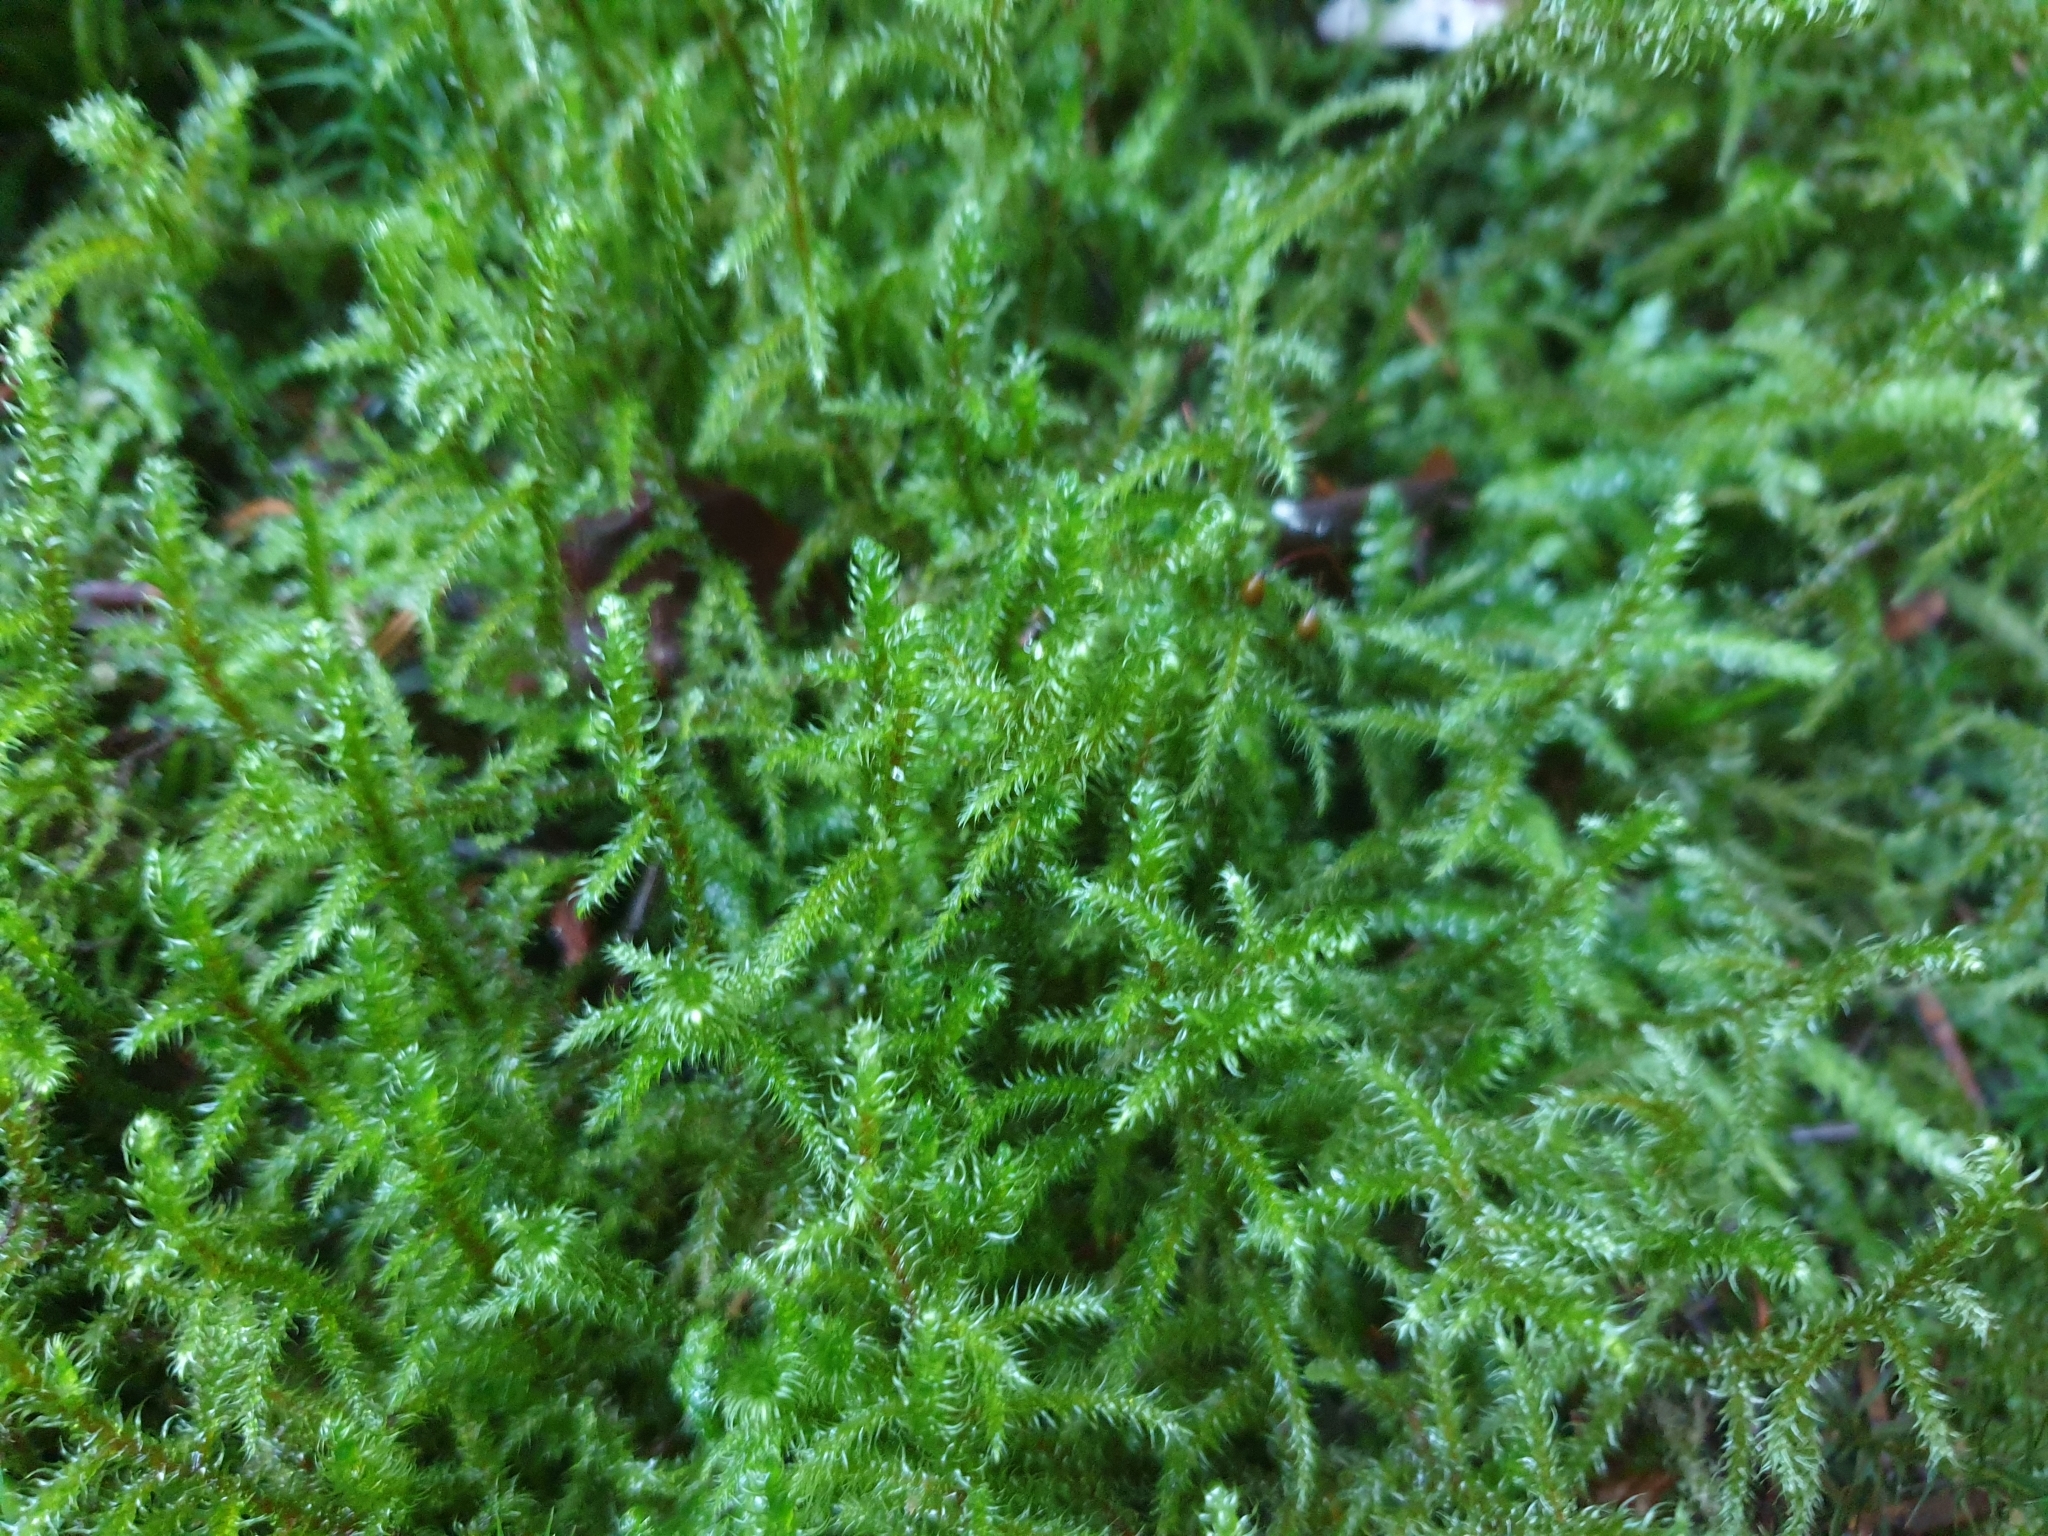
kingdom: Plantae
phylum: Bryophyta
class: Bryopsida
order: Hypnales
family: Hylocomiaceae
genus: Rhytidiadelphus
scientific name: Rhytidiadelphus loreus
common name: Lanky moss
